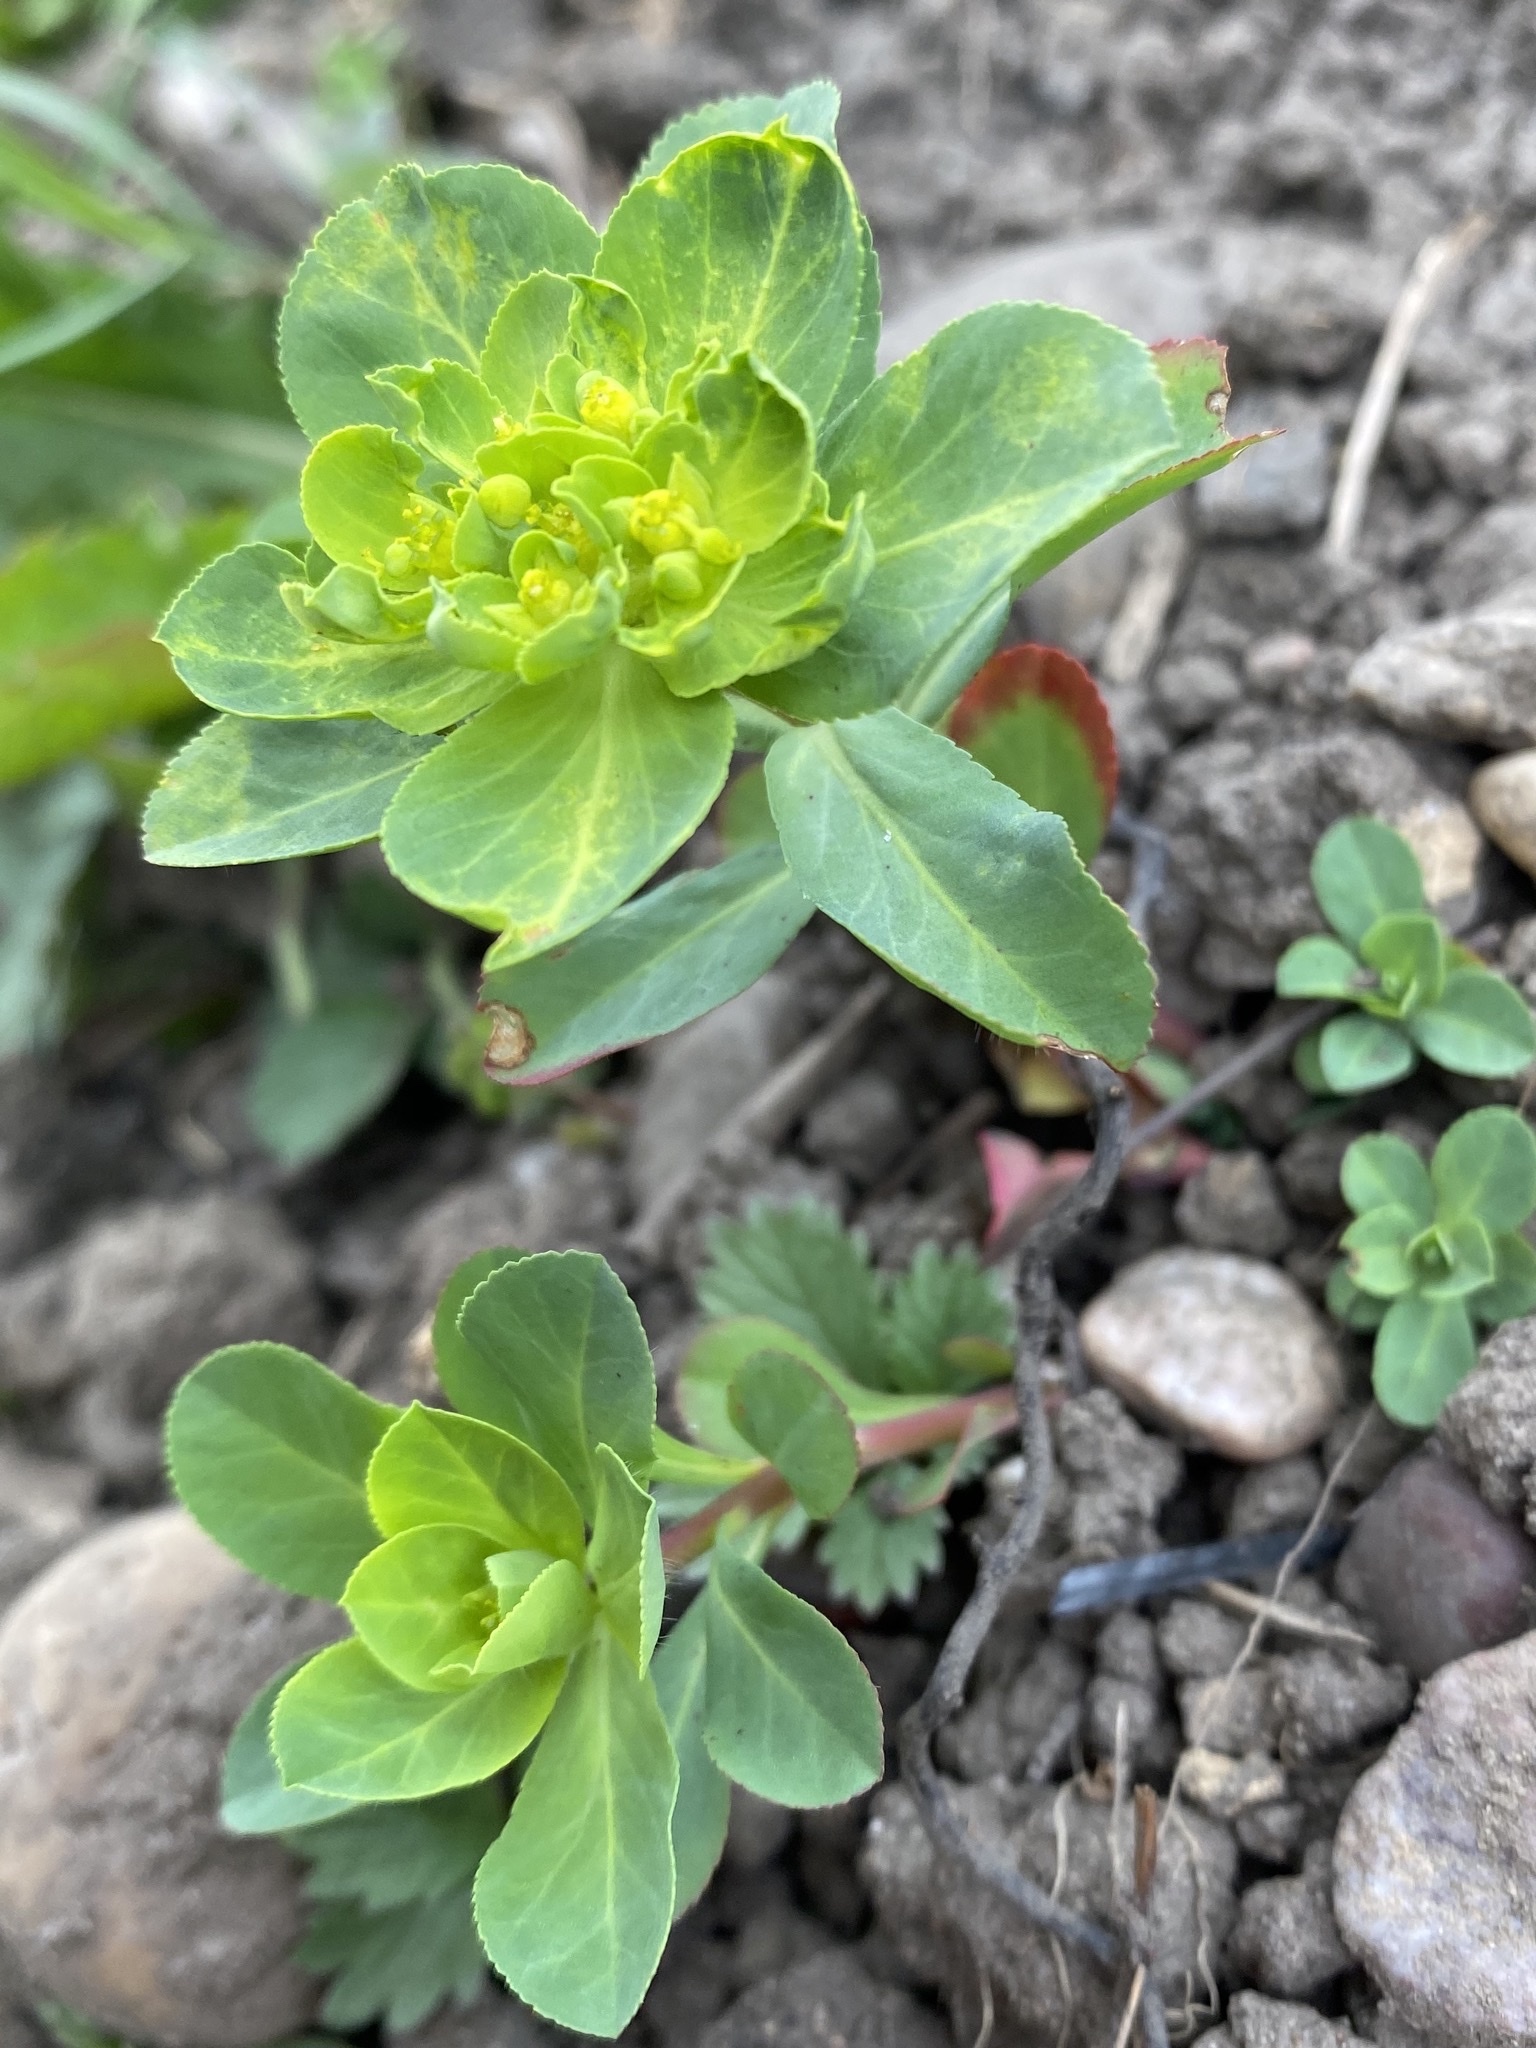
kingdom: Plantae
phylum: Tracheophyta
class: Magnoliopsida
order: Malpighiales
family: Euphorbiaceae
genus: Euphorbia
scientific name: Euphorbia helioscopia
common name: Sun spurge
